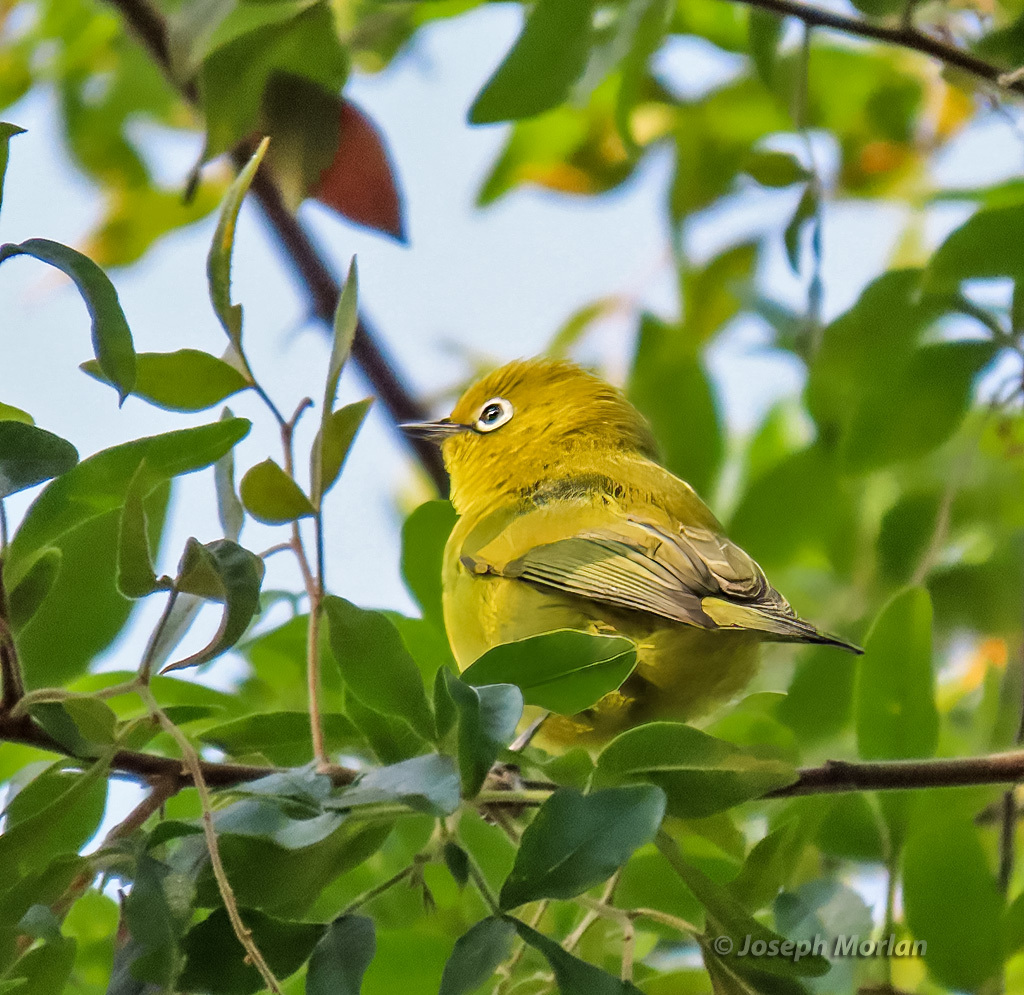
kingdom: Animalia
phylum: Chordata
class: Aves
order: Passeriformes
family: Zosteropidae
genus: Zosterops
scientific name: Zosterops anderssoni
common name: Southern yellow white-eye
